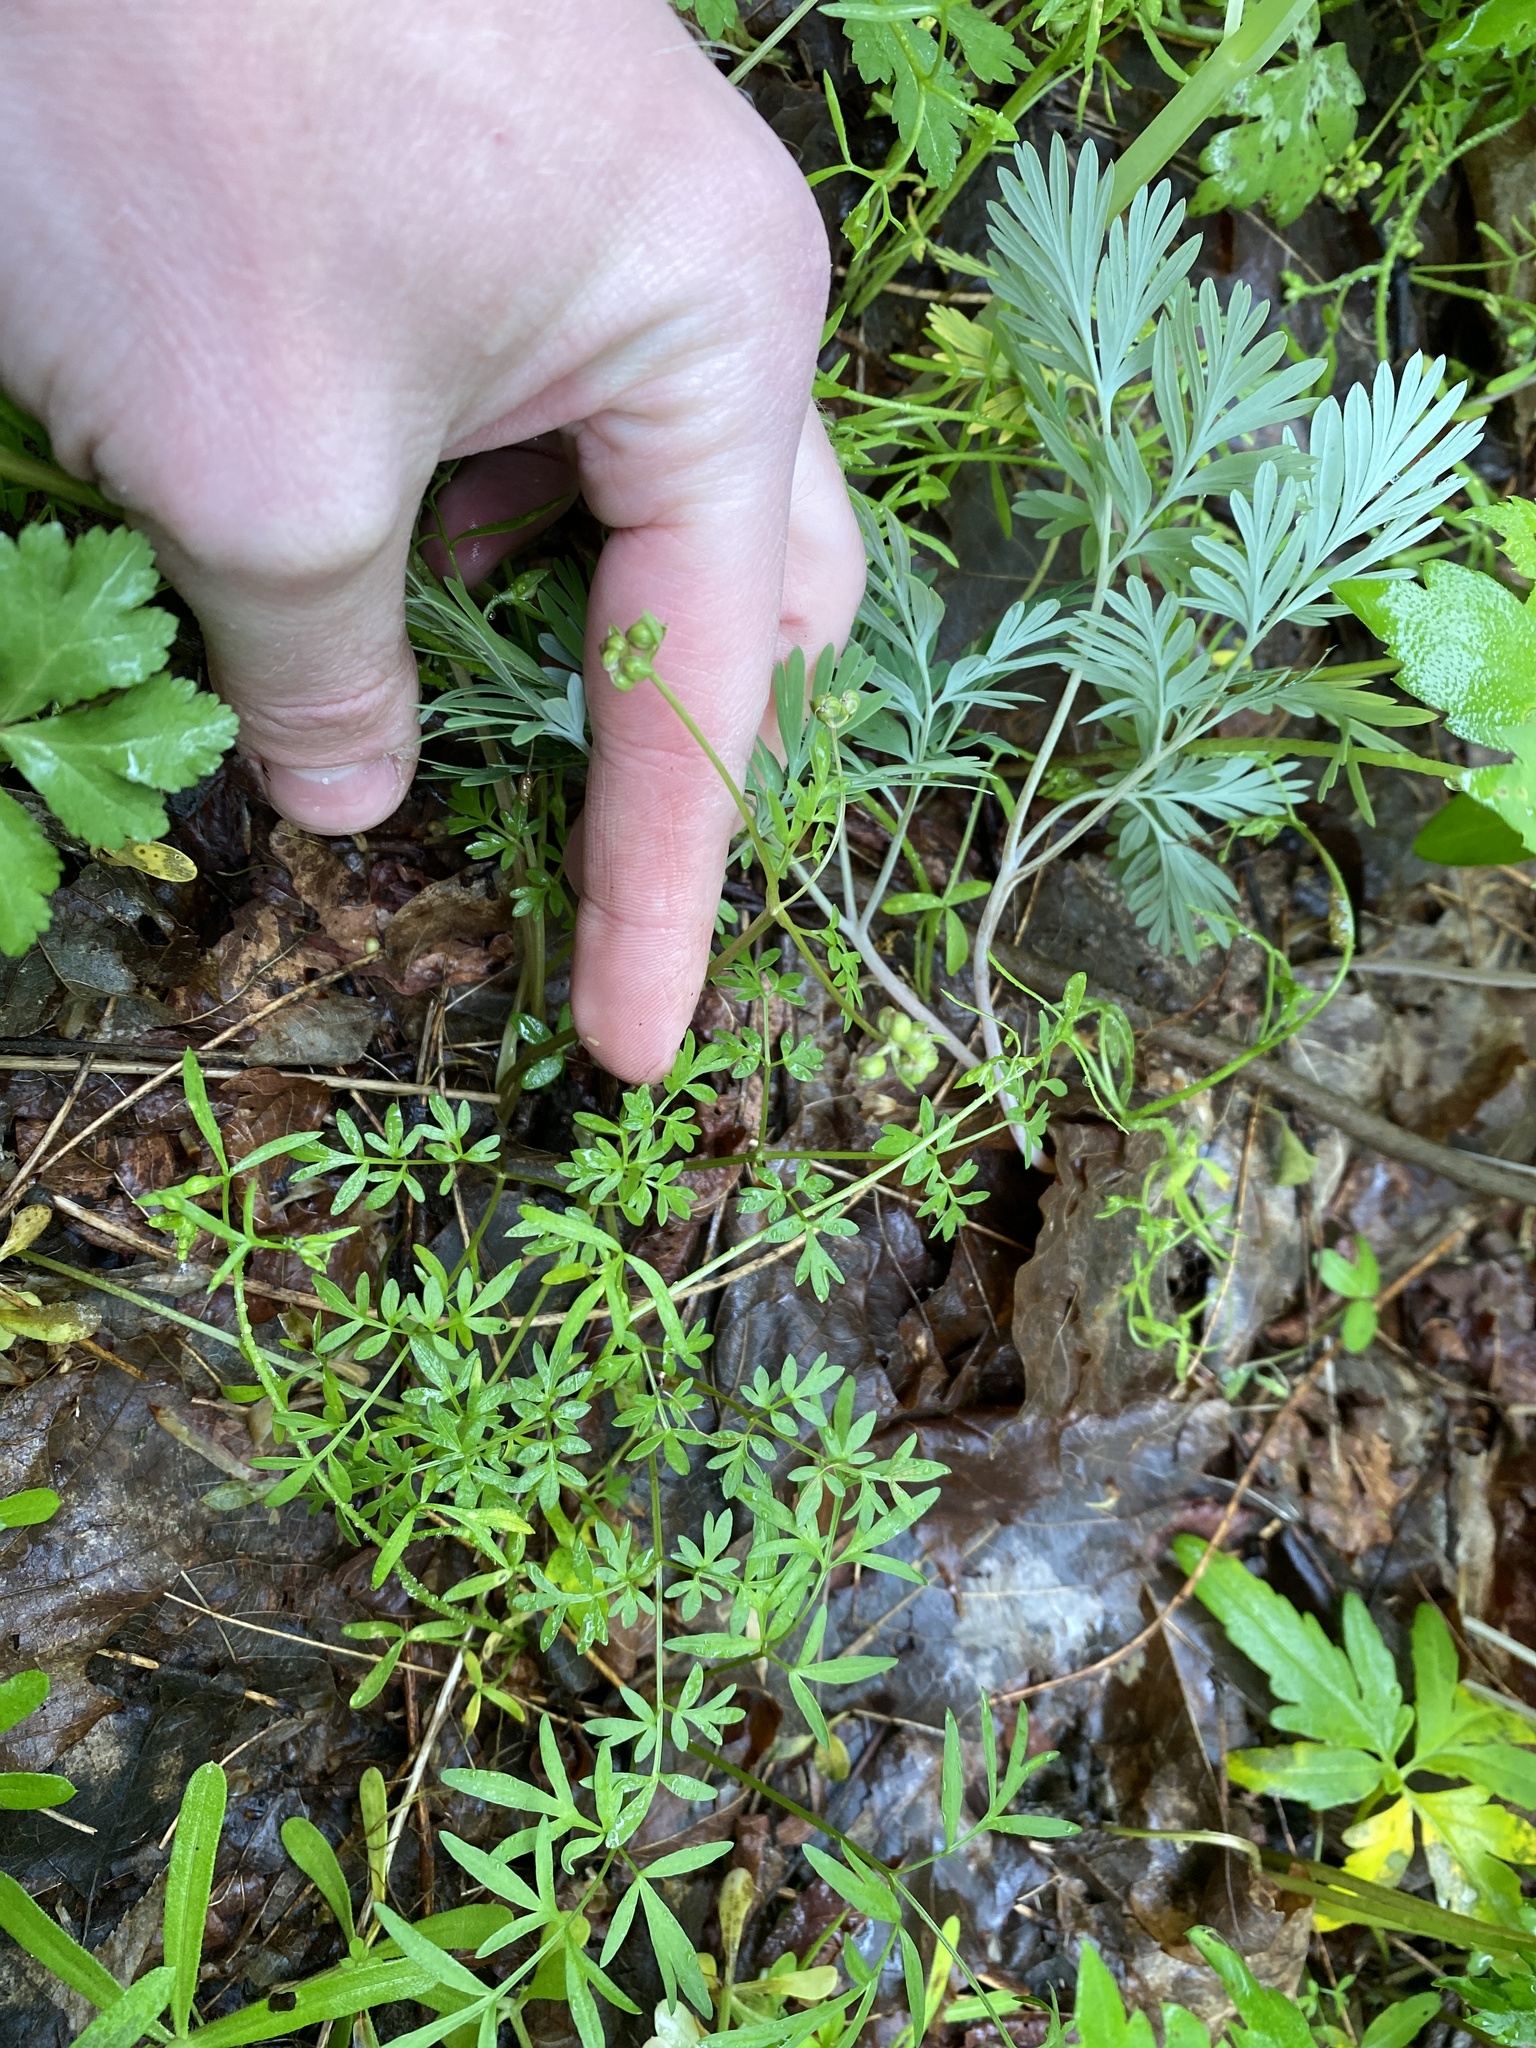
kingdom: Plantae
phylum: Tracheophyta
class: Magnoliopsida
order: Apiales
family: Apiaceae
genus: Erigenia
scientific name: Erigenia bulbosa
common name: Pepper-and-salt
